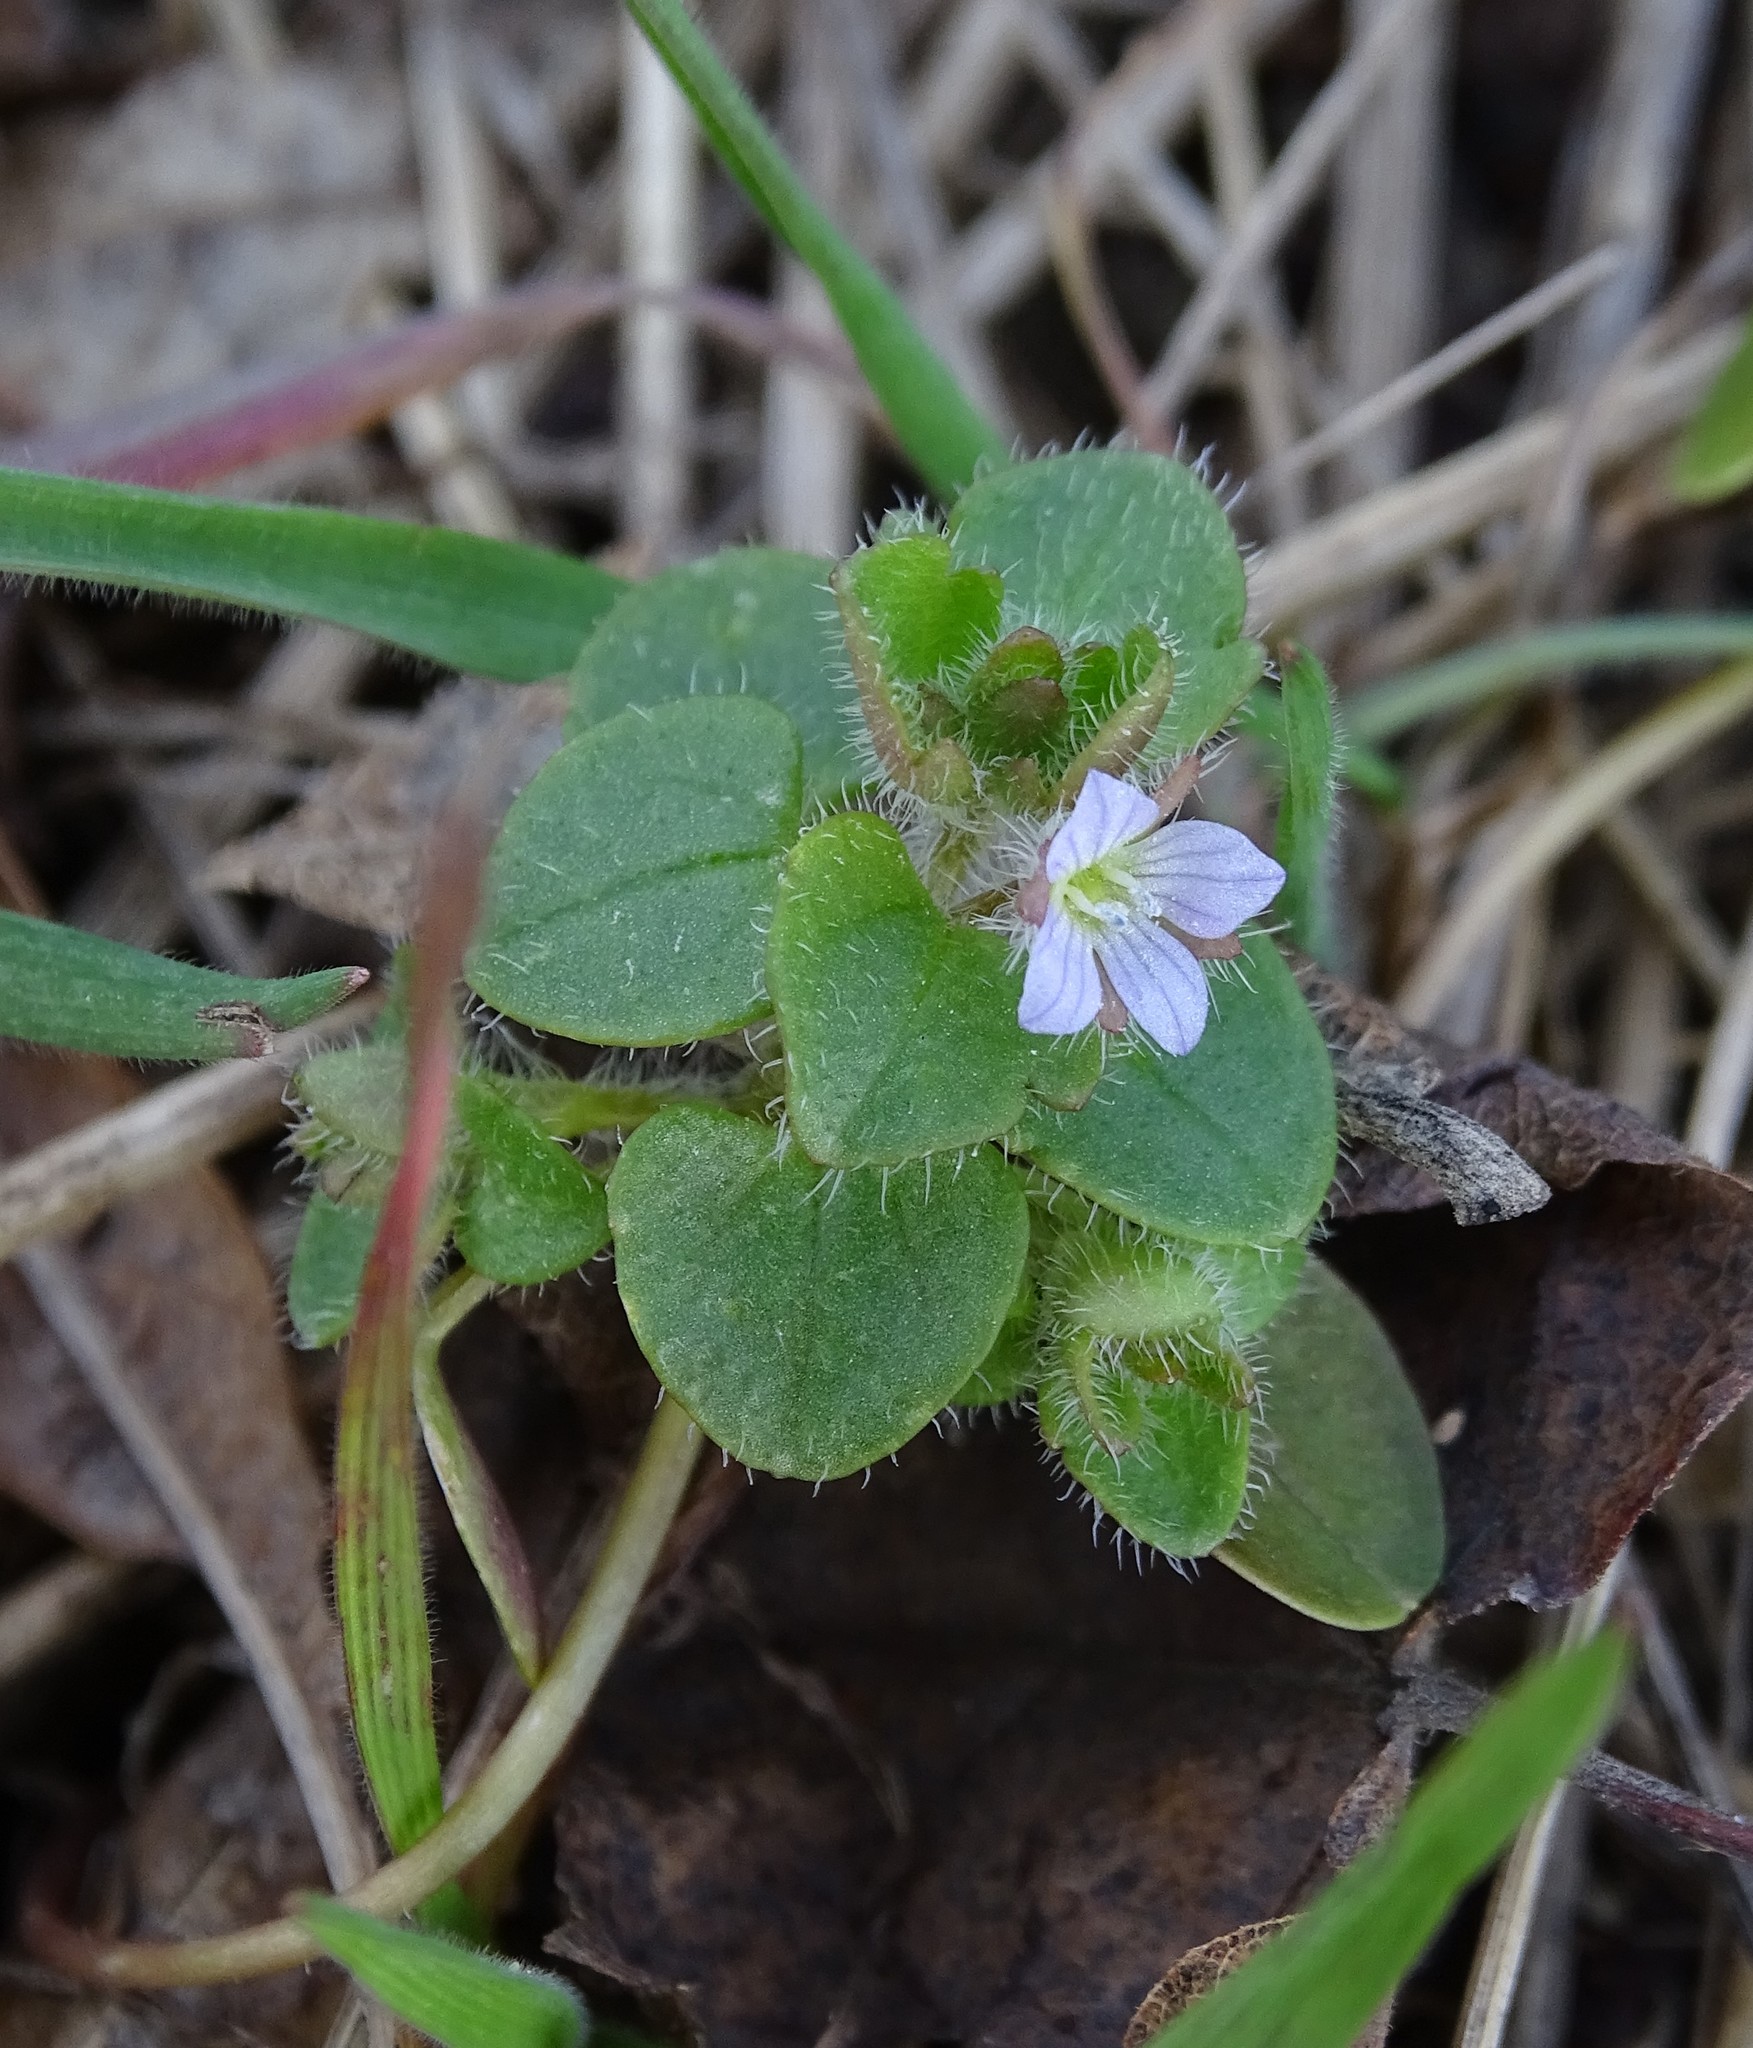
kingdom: Plantae
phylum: Tracheophyta
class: Magnoliopsida
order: Lamiales
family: Plantaginaceae
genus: Veronica
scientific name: Veronica sublobata
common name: False ivy-leaved speedwell
